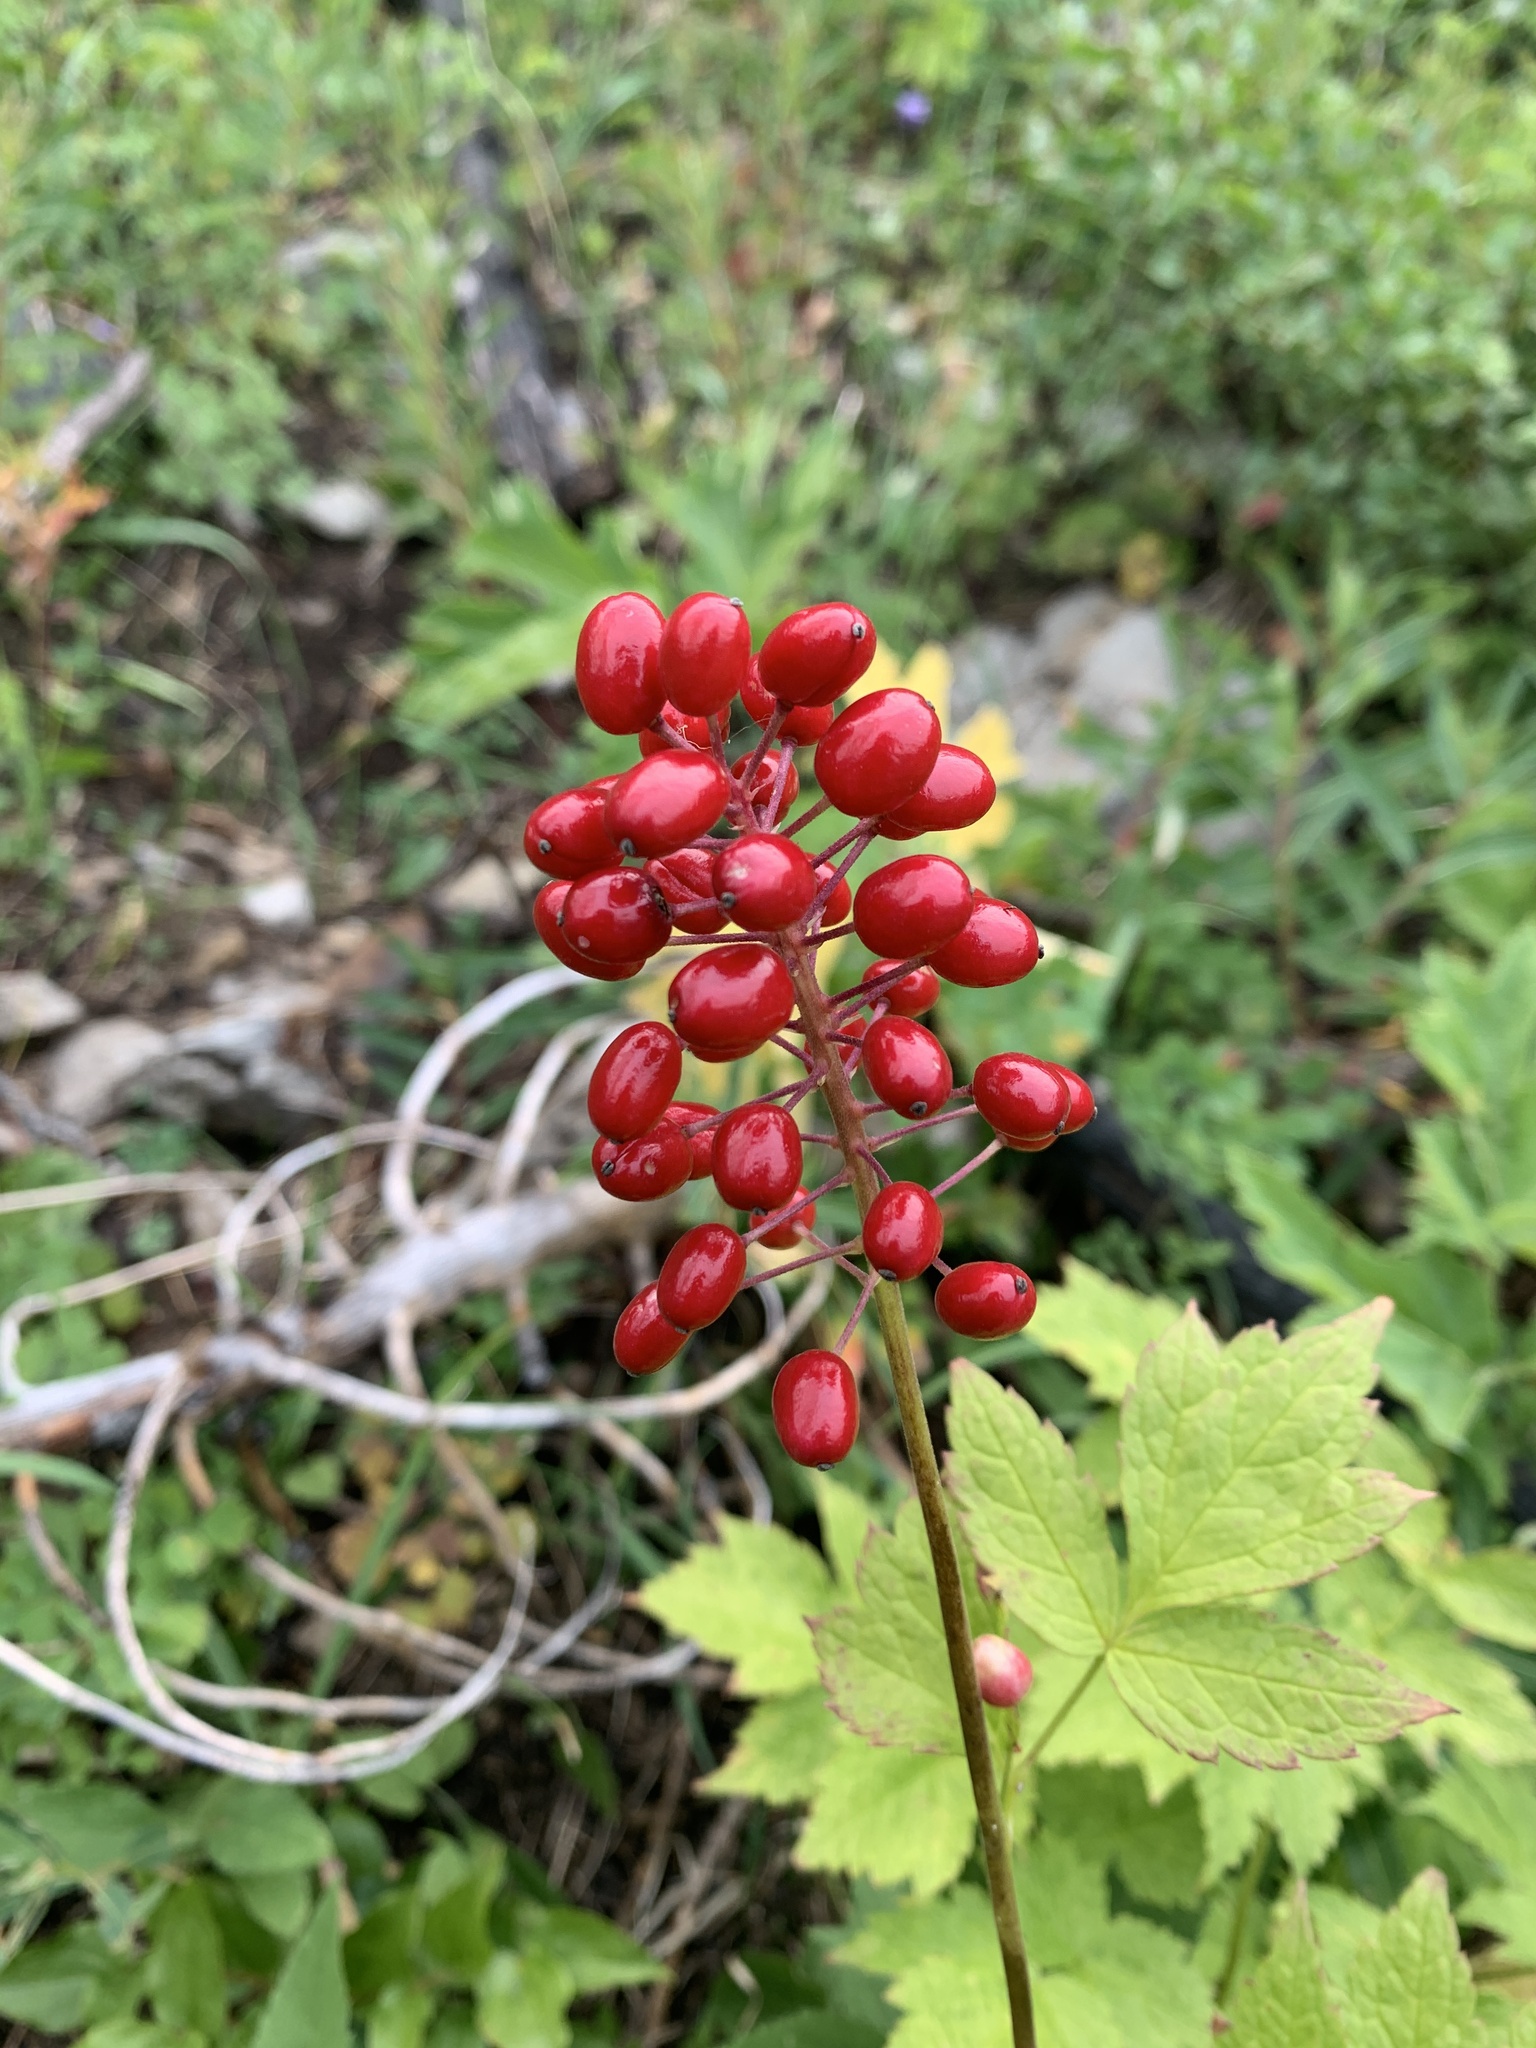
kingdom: Plantae
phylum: Tracheophyta
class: Magnoliopsida
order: Ranunculales
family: Ranunculaceae
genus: Actaea
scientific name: Actaea rubra
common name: Red baneberry
